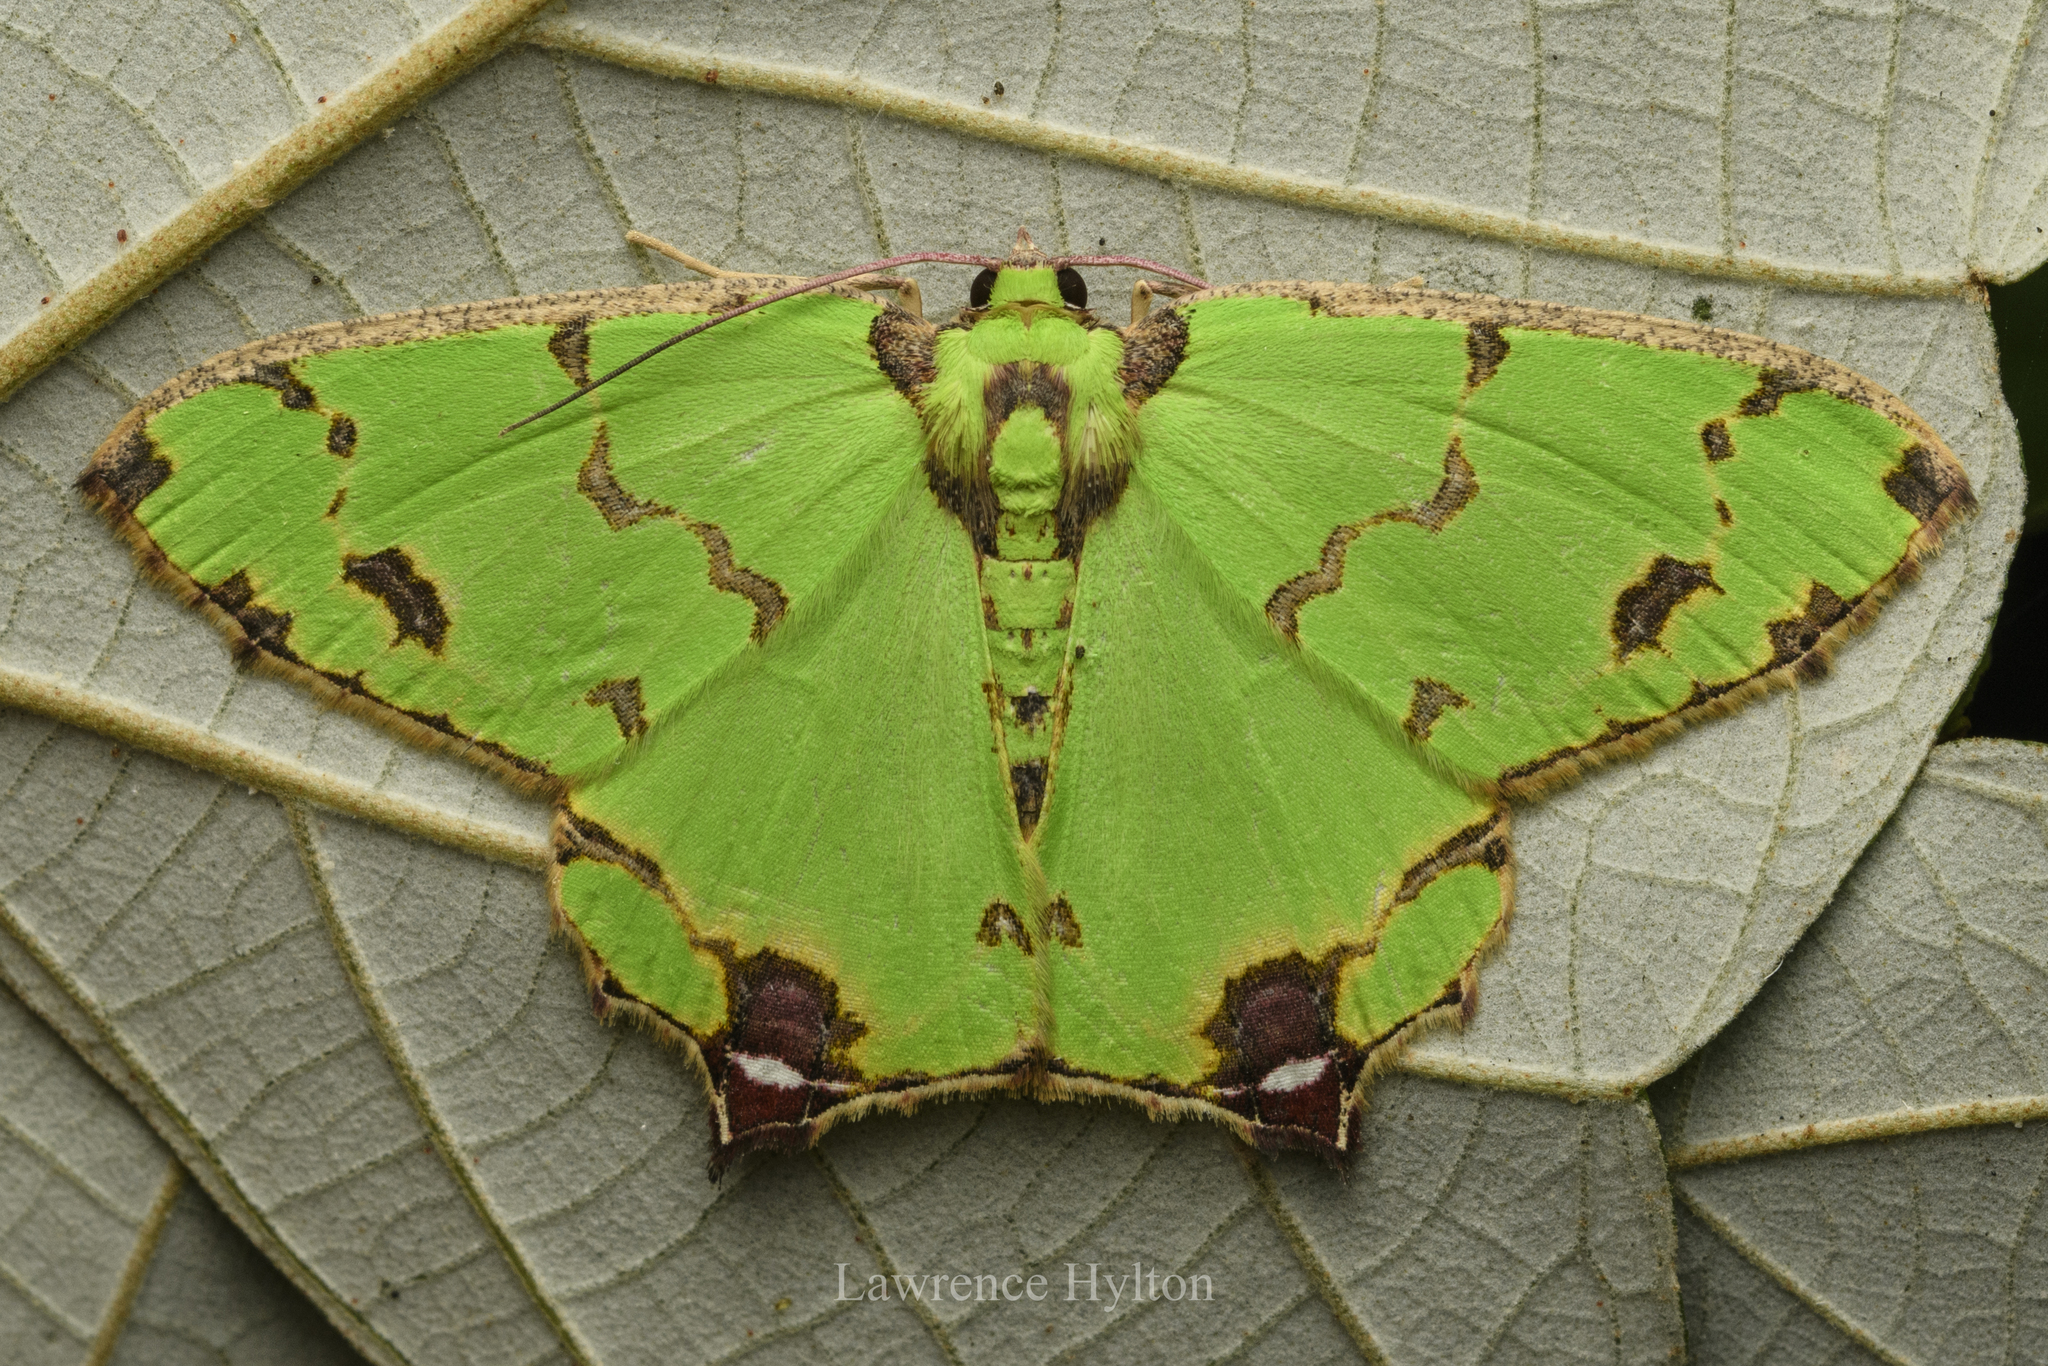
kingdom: Animalia
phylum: Arthropoda
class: Insecta
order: Lepidoptera
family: Geometridae
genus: Agathia
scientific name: Agathia lycaenaria
